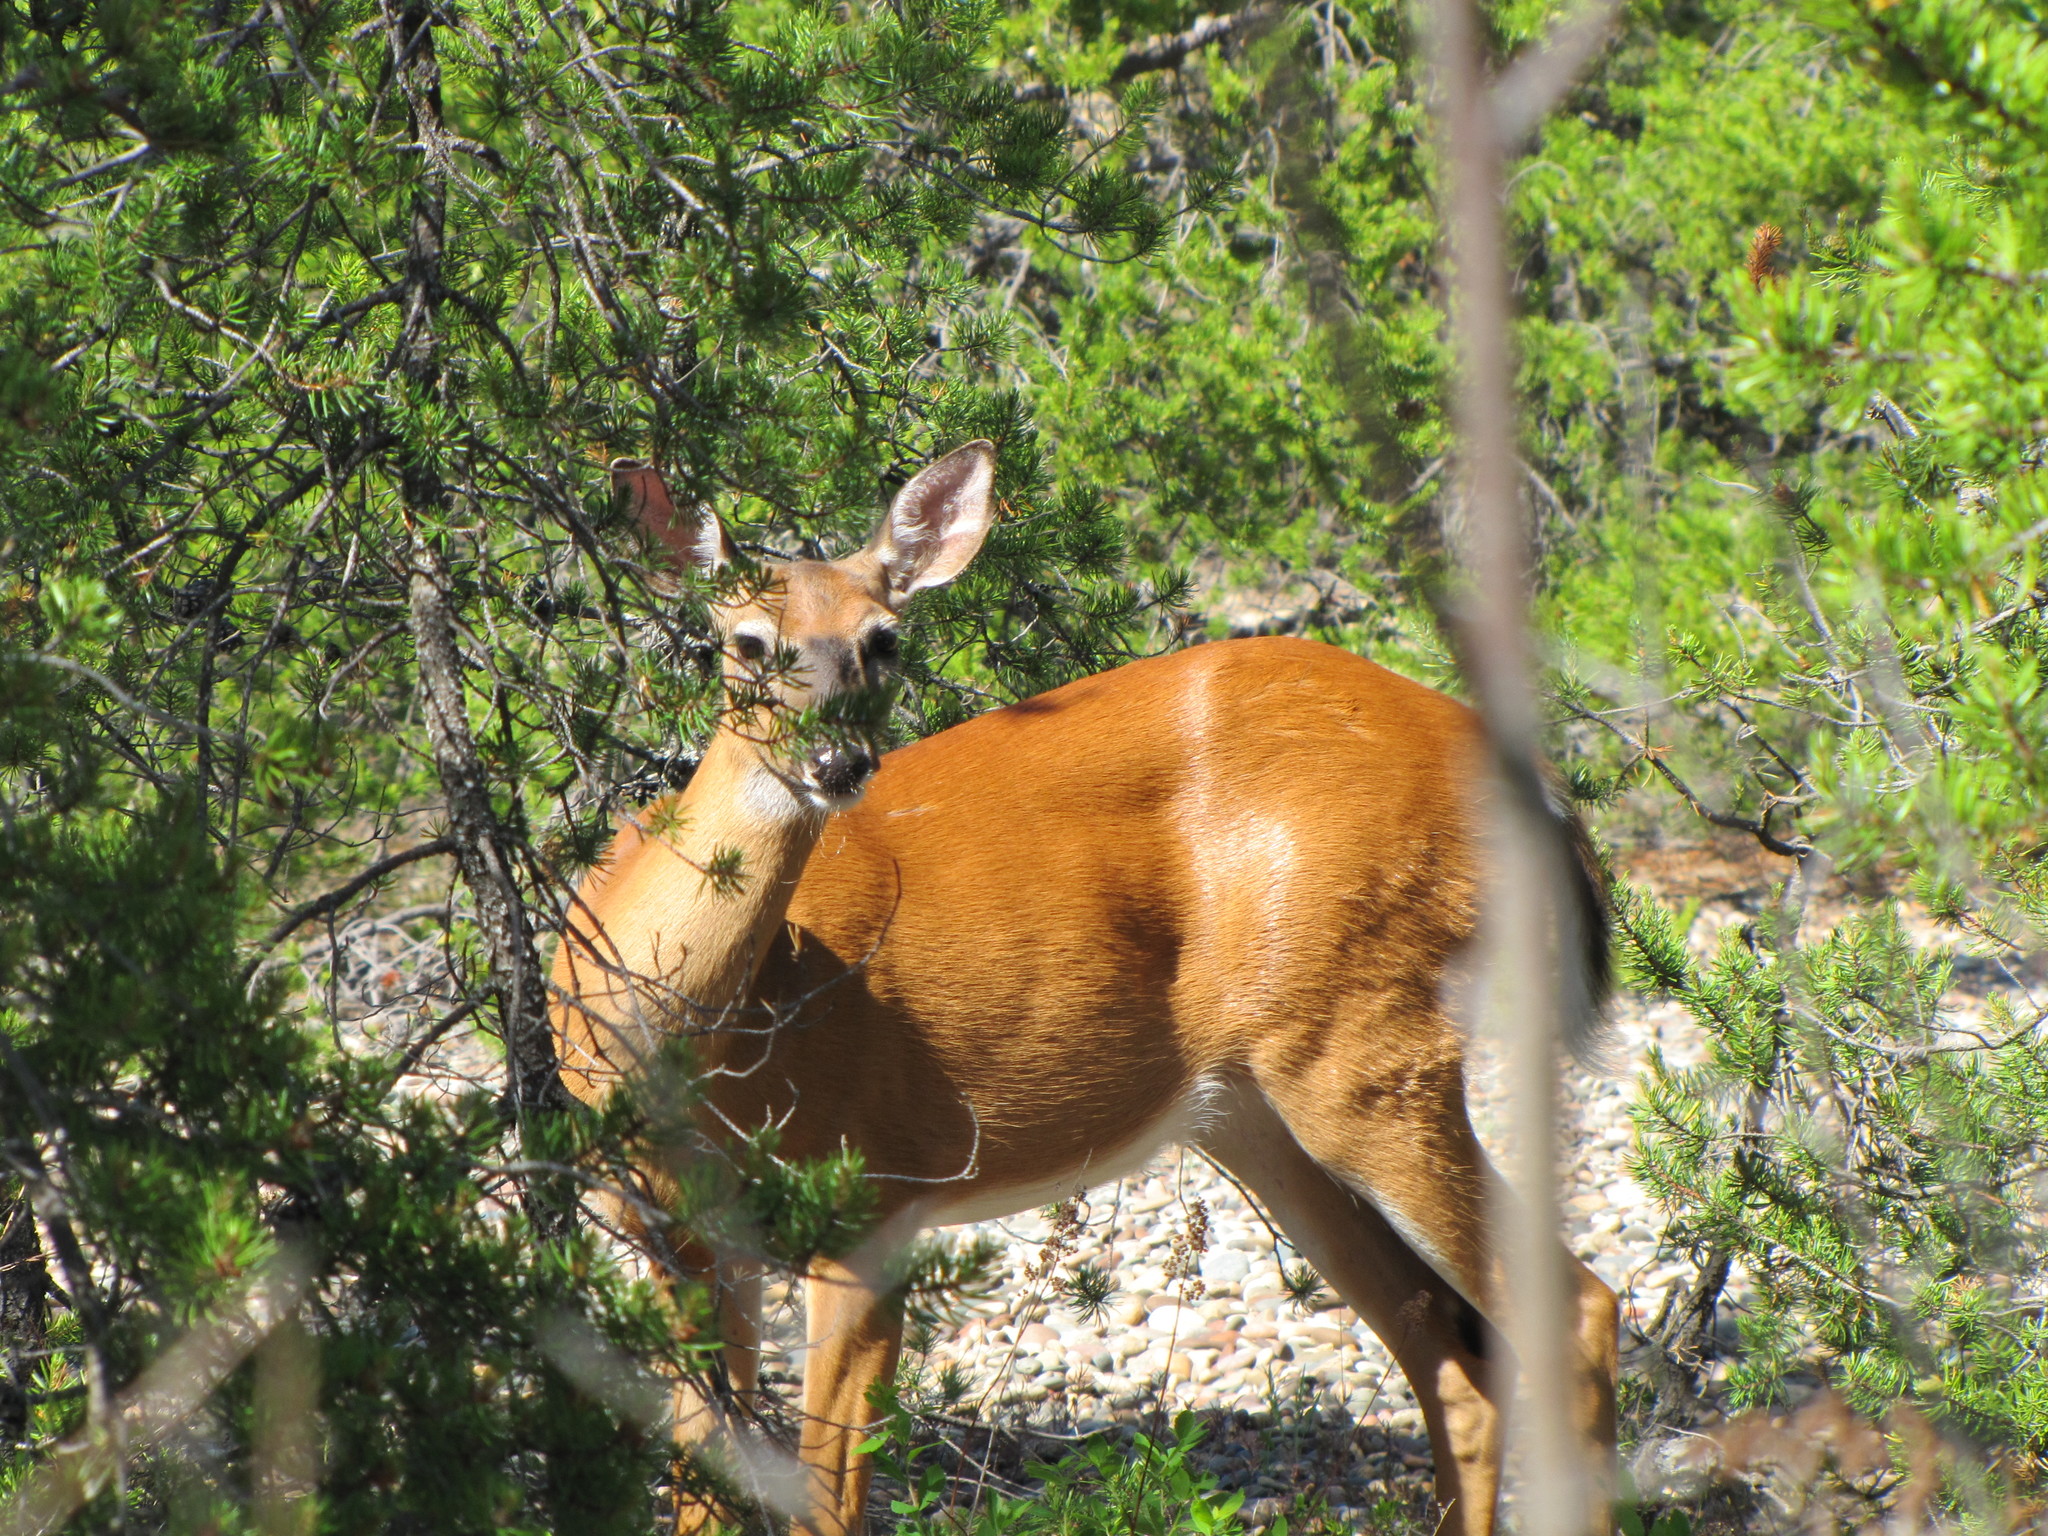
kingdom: Animalia
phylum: Chordata
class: Mammalia
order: Artiodactyla
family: Cervidae
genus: Odocoileus
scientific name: Odocoileus virginianus
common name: White-tailed deer
